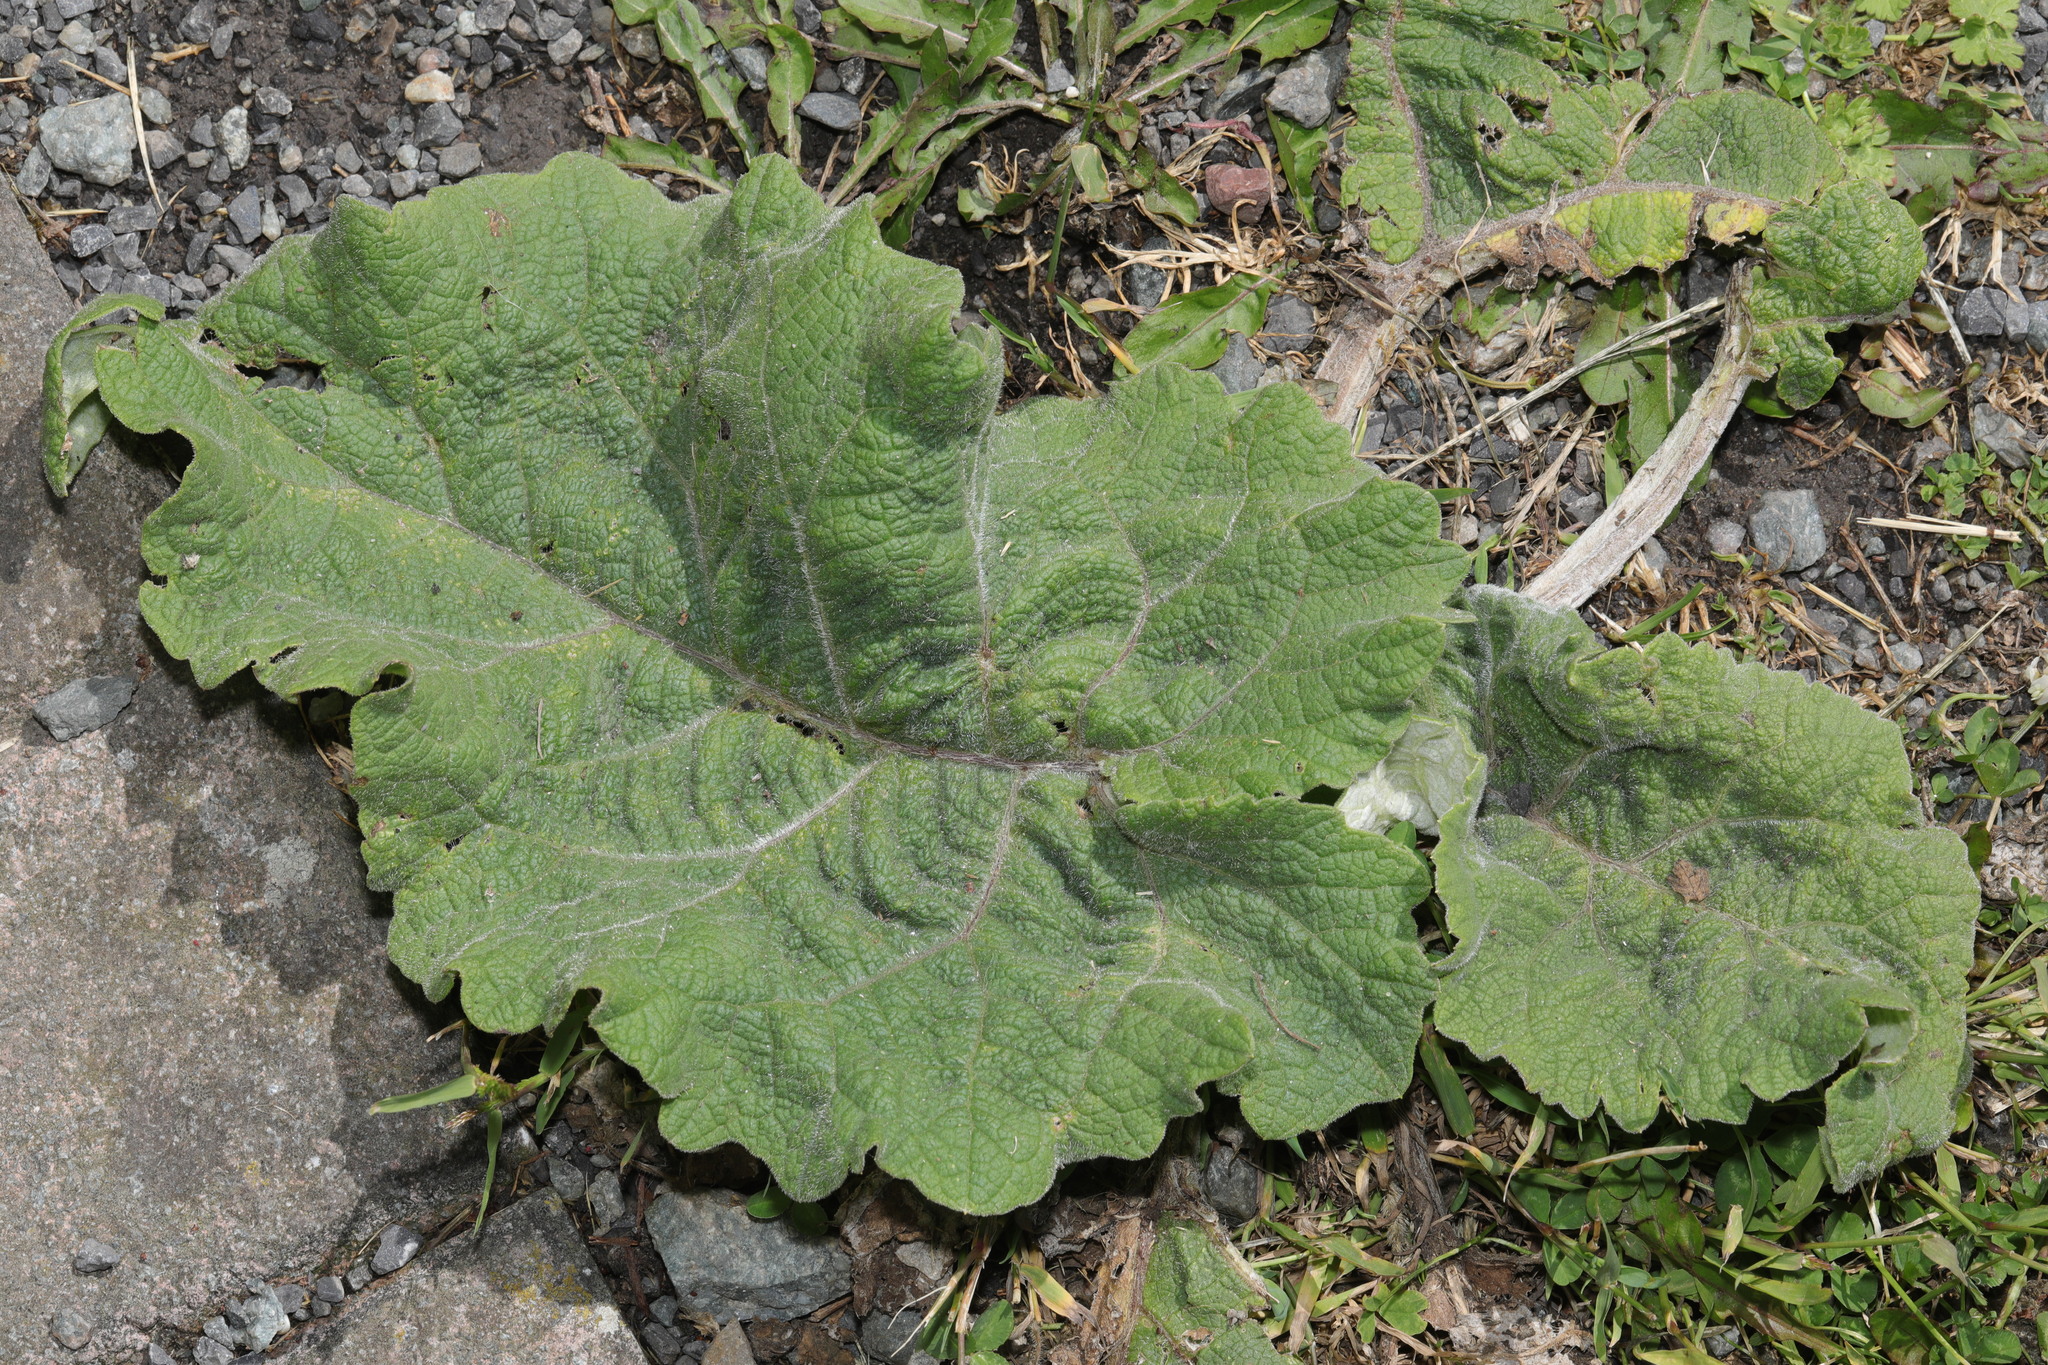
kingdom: Plantae
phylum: Tracheophyta
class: Magnoliopsida
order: Asterales
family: Asteraceae
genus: Arctium
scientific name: Arctium minus
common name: Lesser burdock
